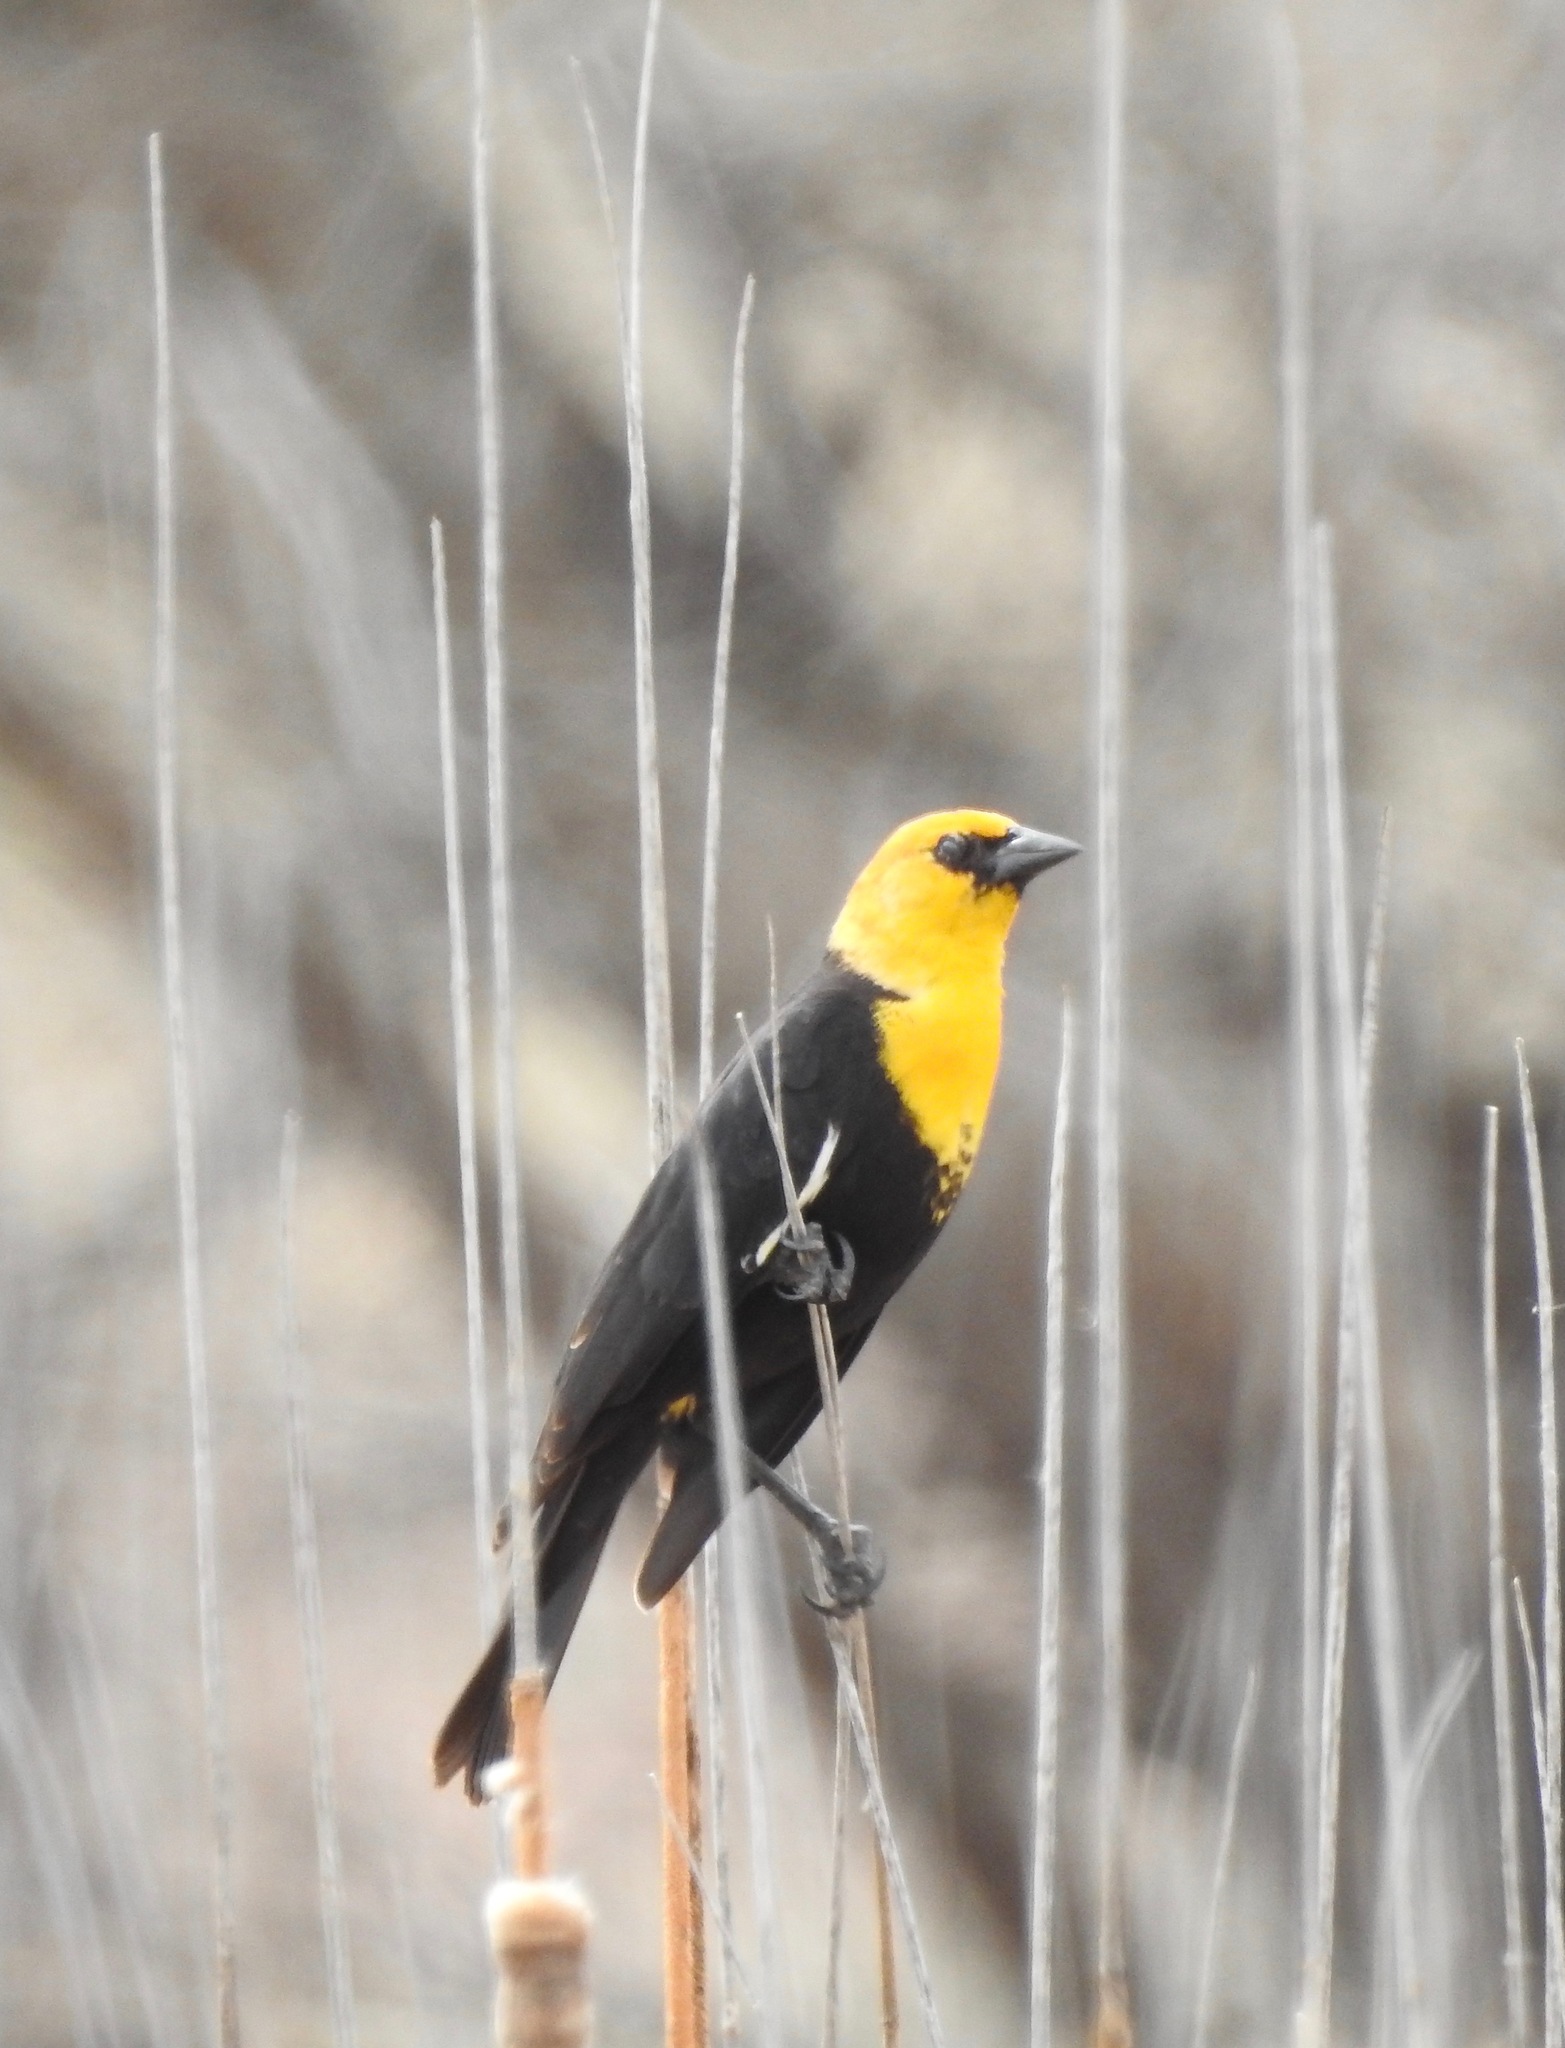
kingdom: Animalia
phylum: Chordata
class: Aves
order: Passeriformes
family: Icteridae
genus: Xanthocephalus
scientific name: Xanthocephalus xanthocephalus
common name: Yellow-headed blackbird
